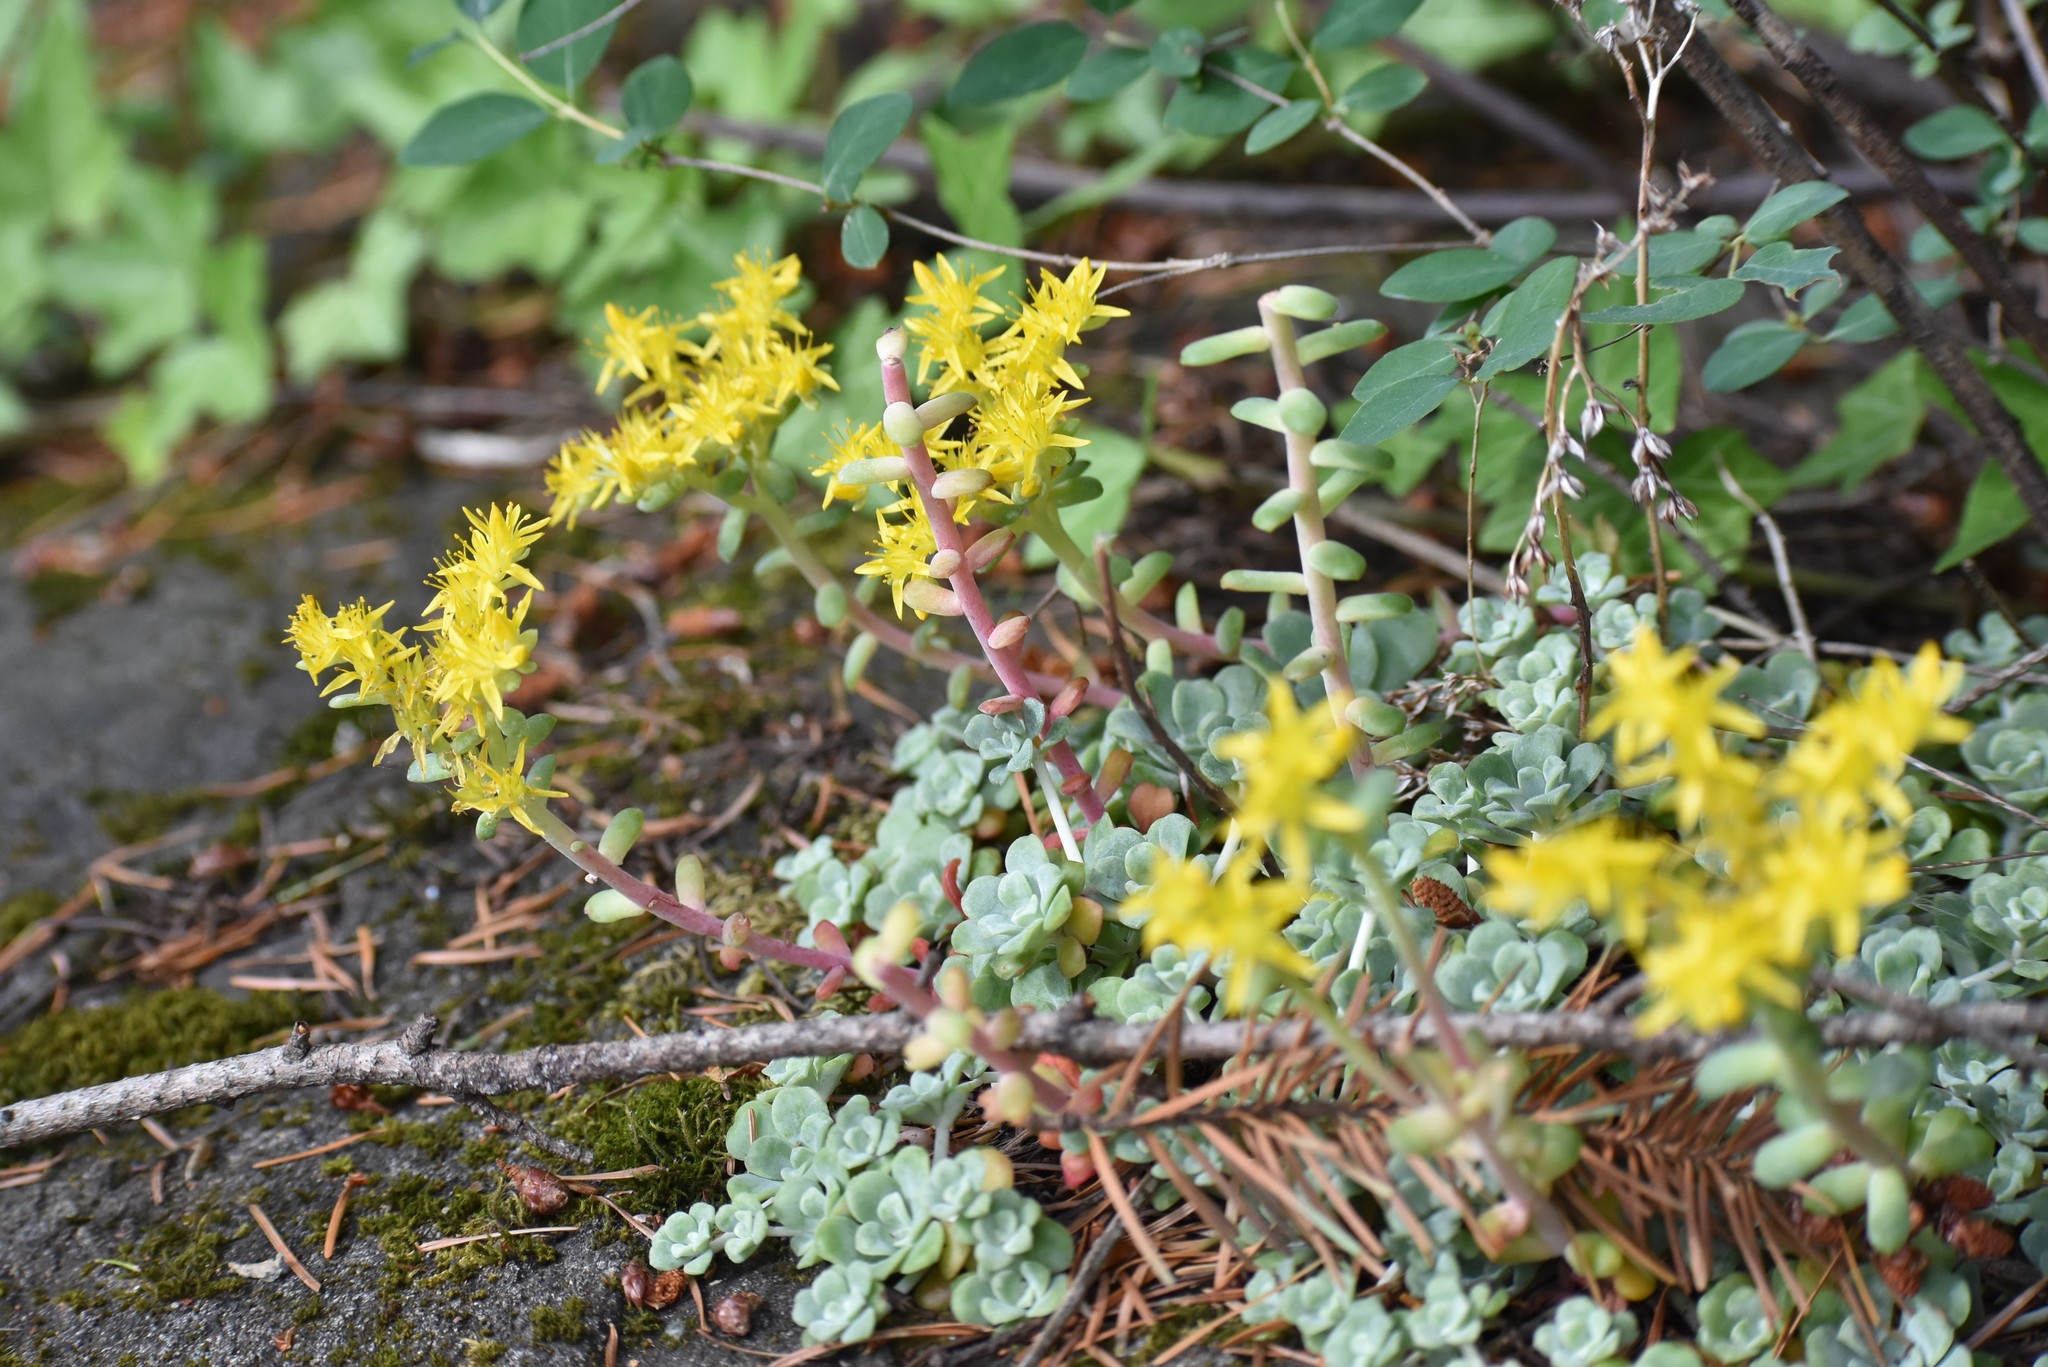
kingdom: Plantae
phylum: Tracheophyta
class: Magnoliopsida
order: Saxifragales
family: Crassulaceae
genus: Sedum
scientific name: Sedum spathulifolium
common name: Colorado stonecrop
